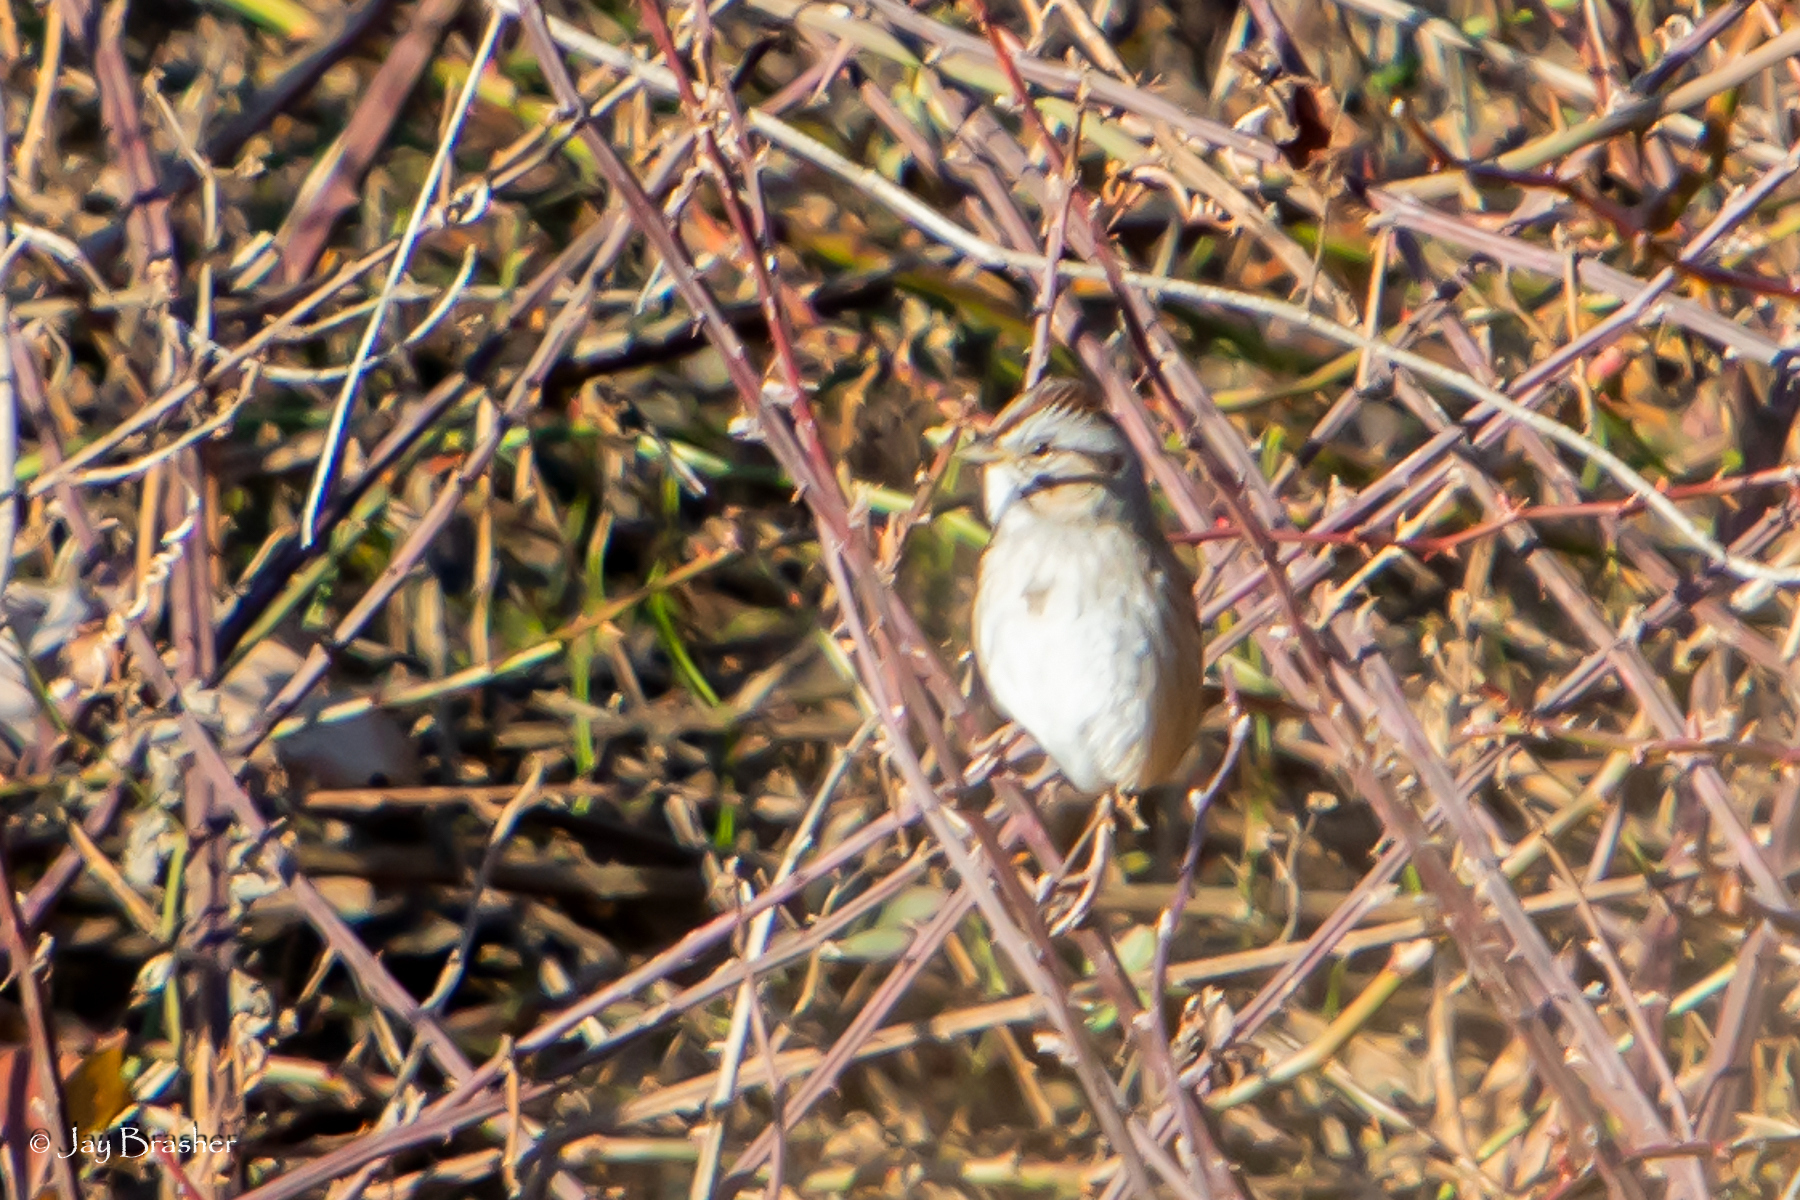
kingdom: Animalia
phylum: Chordata
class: Aves
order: Passeriformes
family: Passerellidae
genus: Spizella
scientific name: Spizella pallida
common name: Clay-colored sparrow
